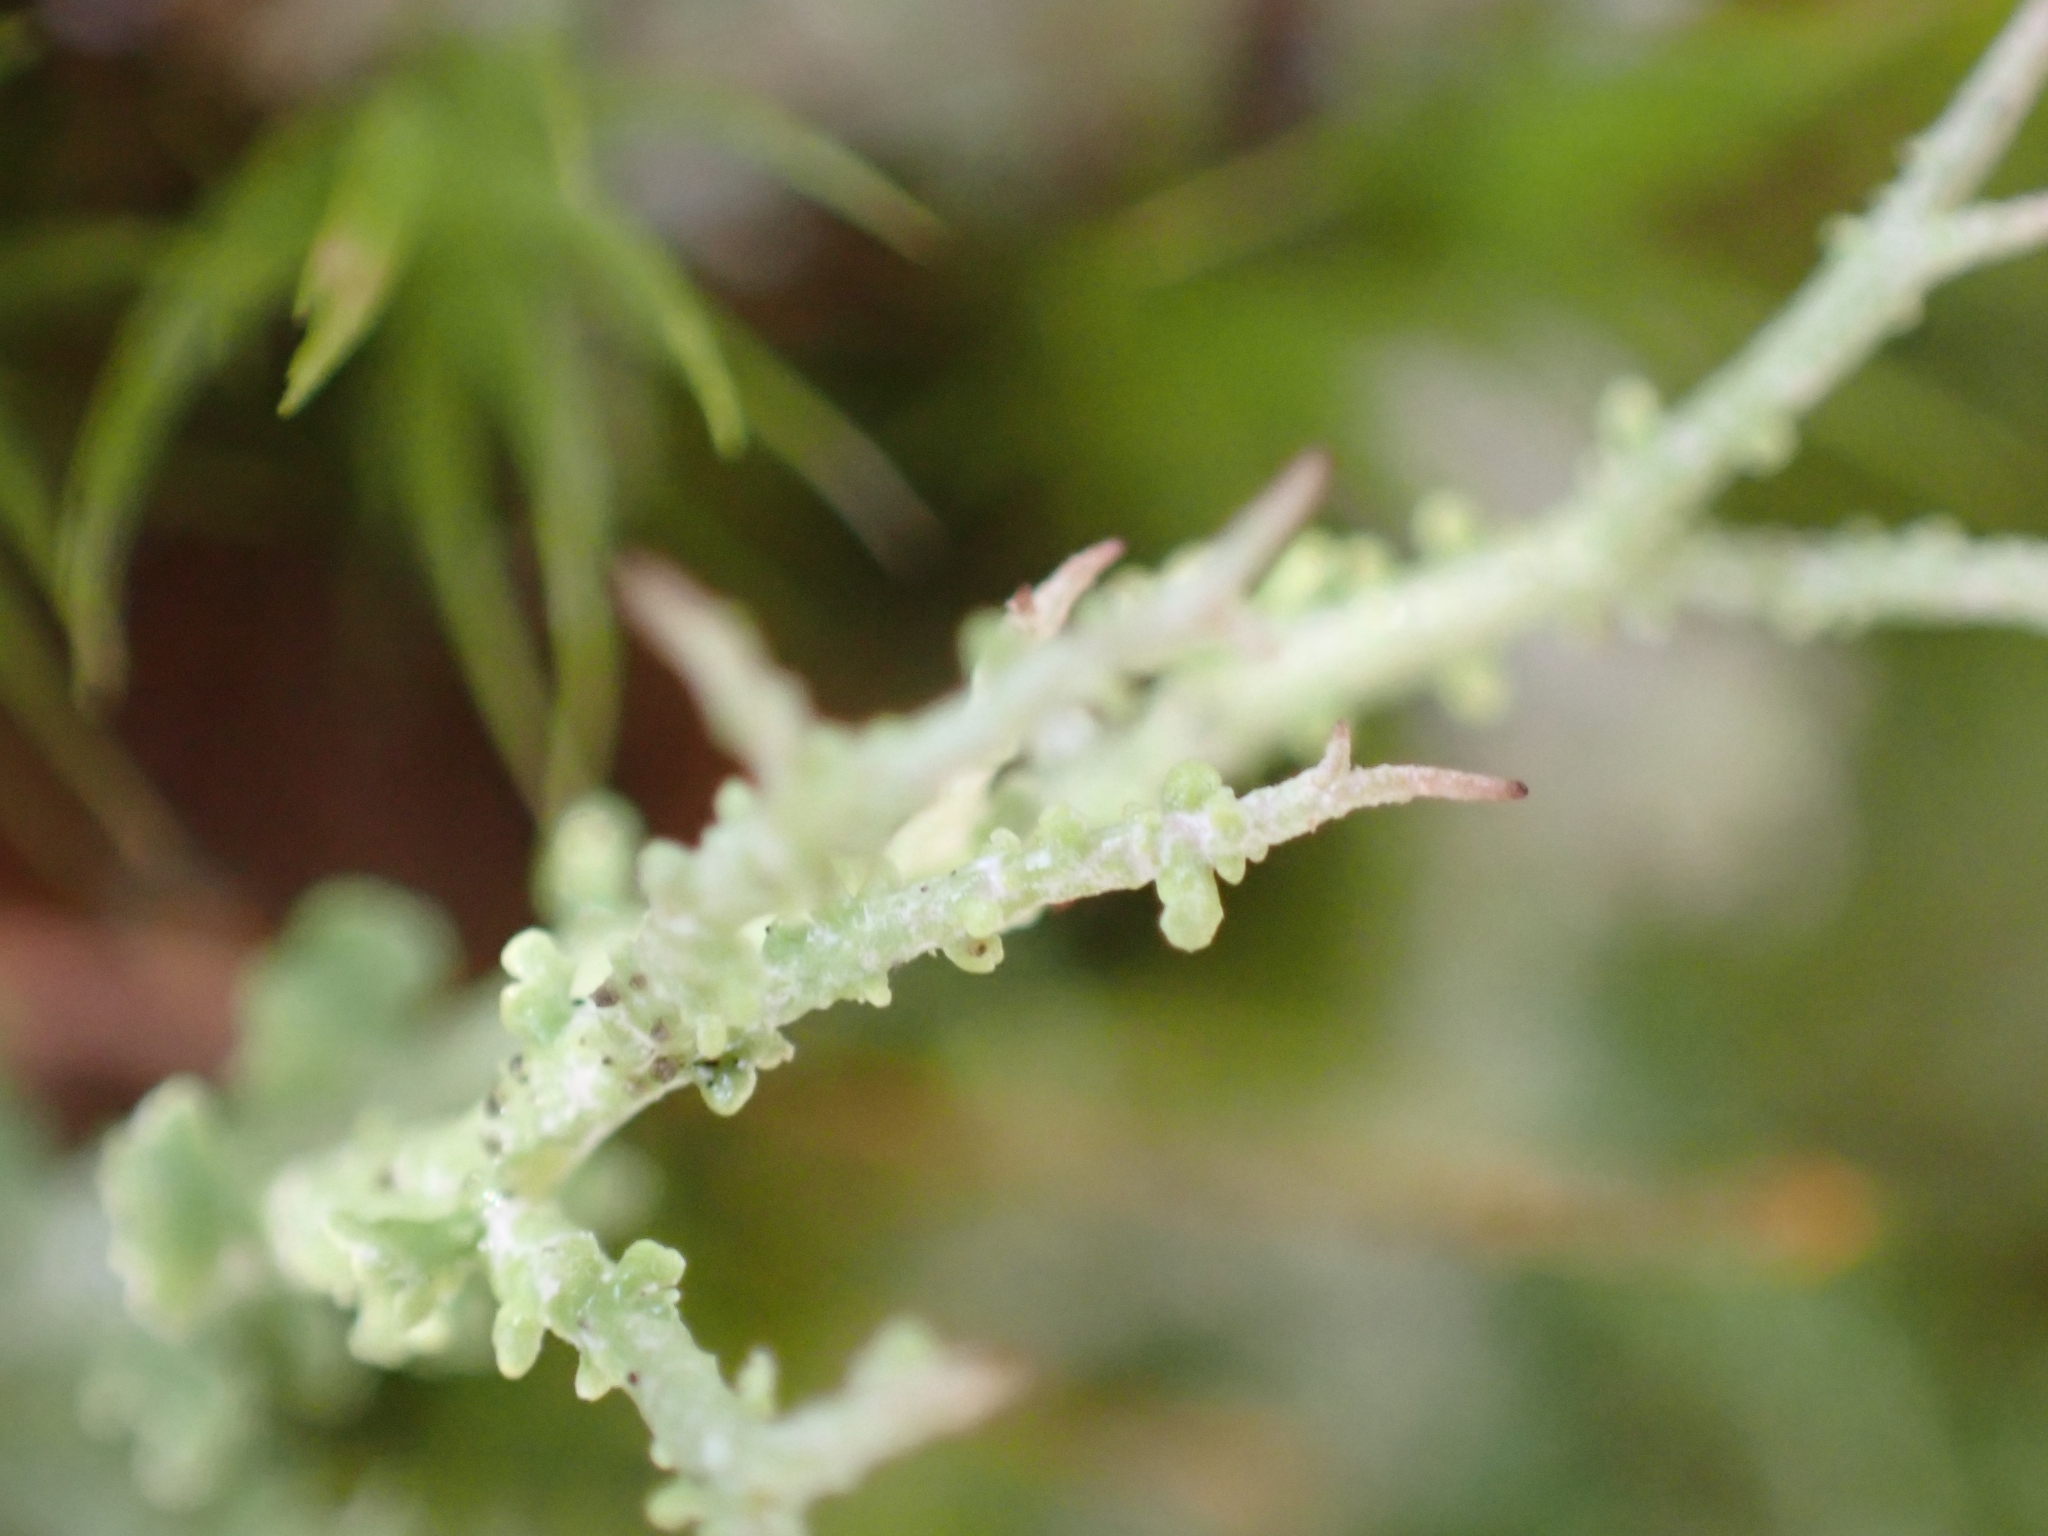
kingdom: Fungi
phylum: Ascomycota
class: Lecanoromycetes
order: Lecanorales
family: Cladoniaceae
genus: Cladonia
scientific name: Cladonia furcata
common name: Many-forked cladonia
